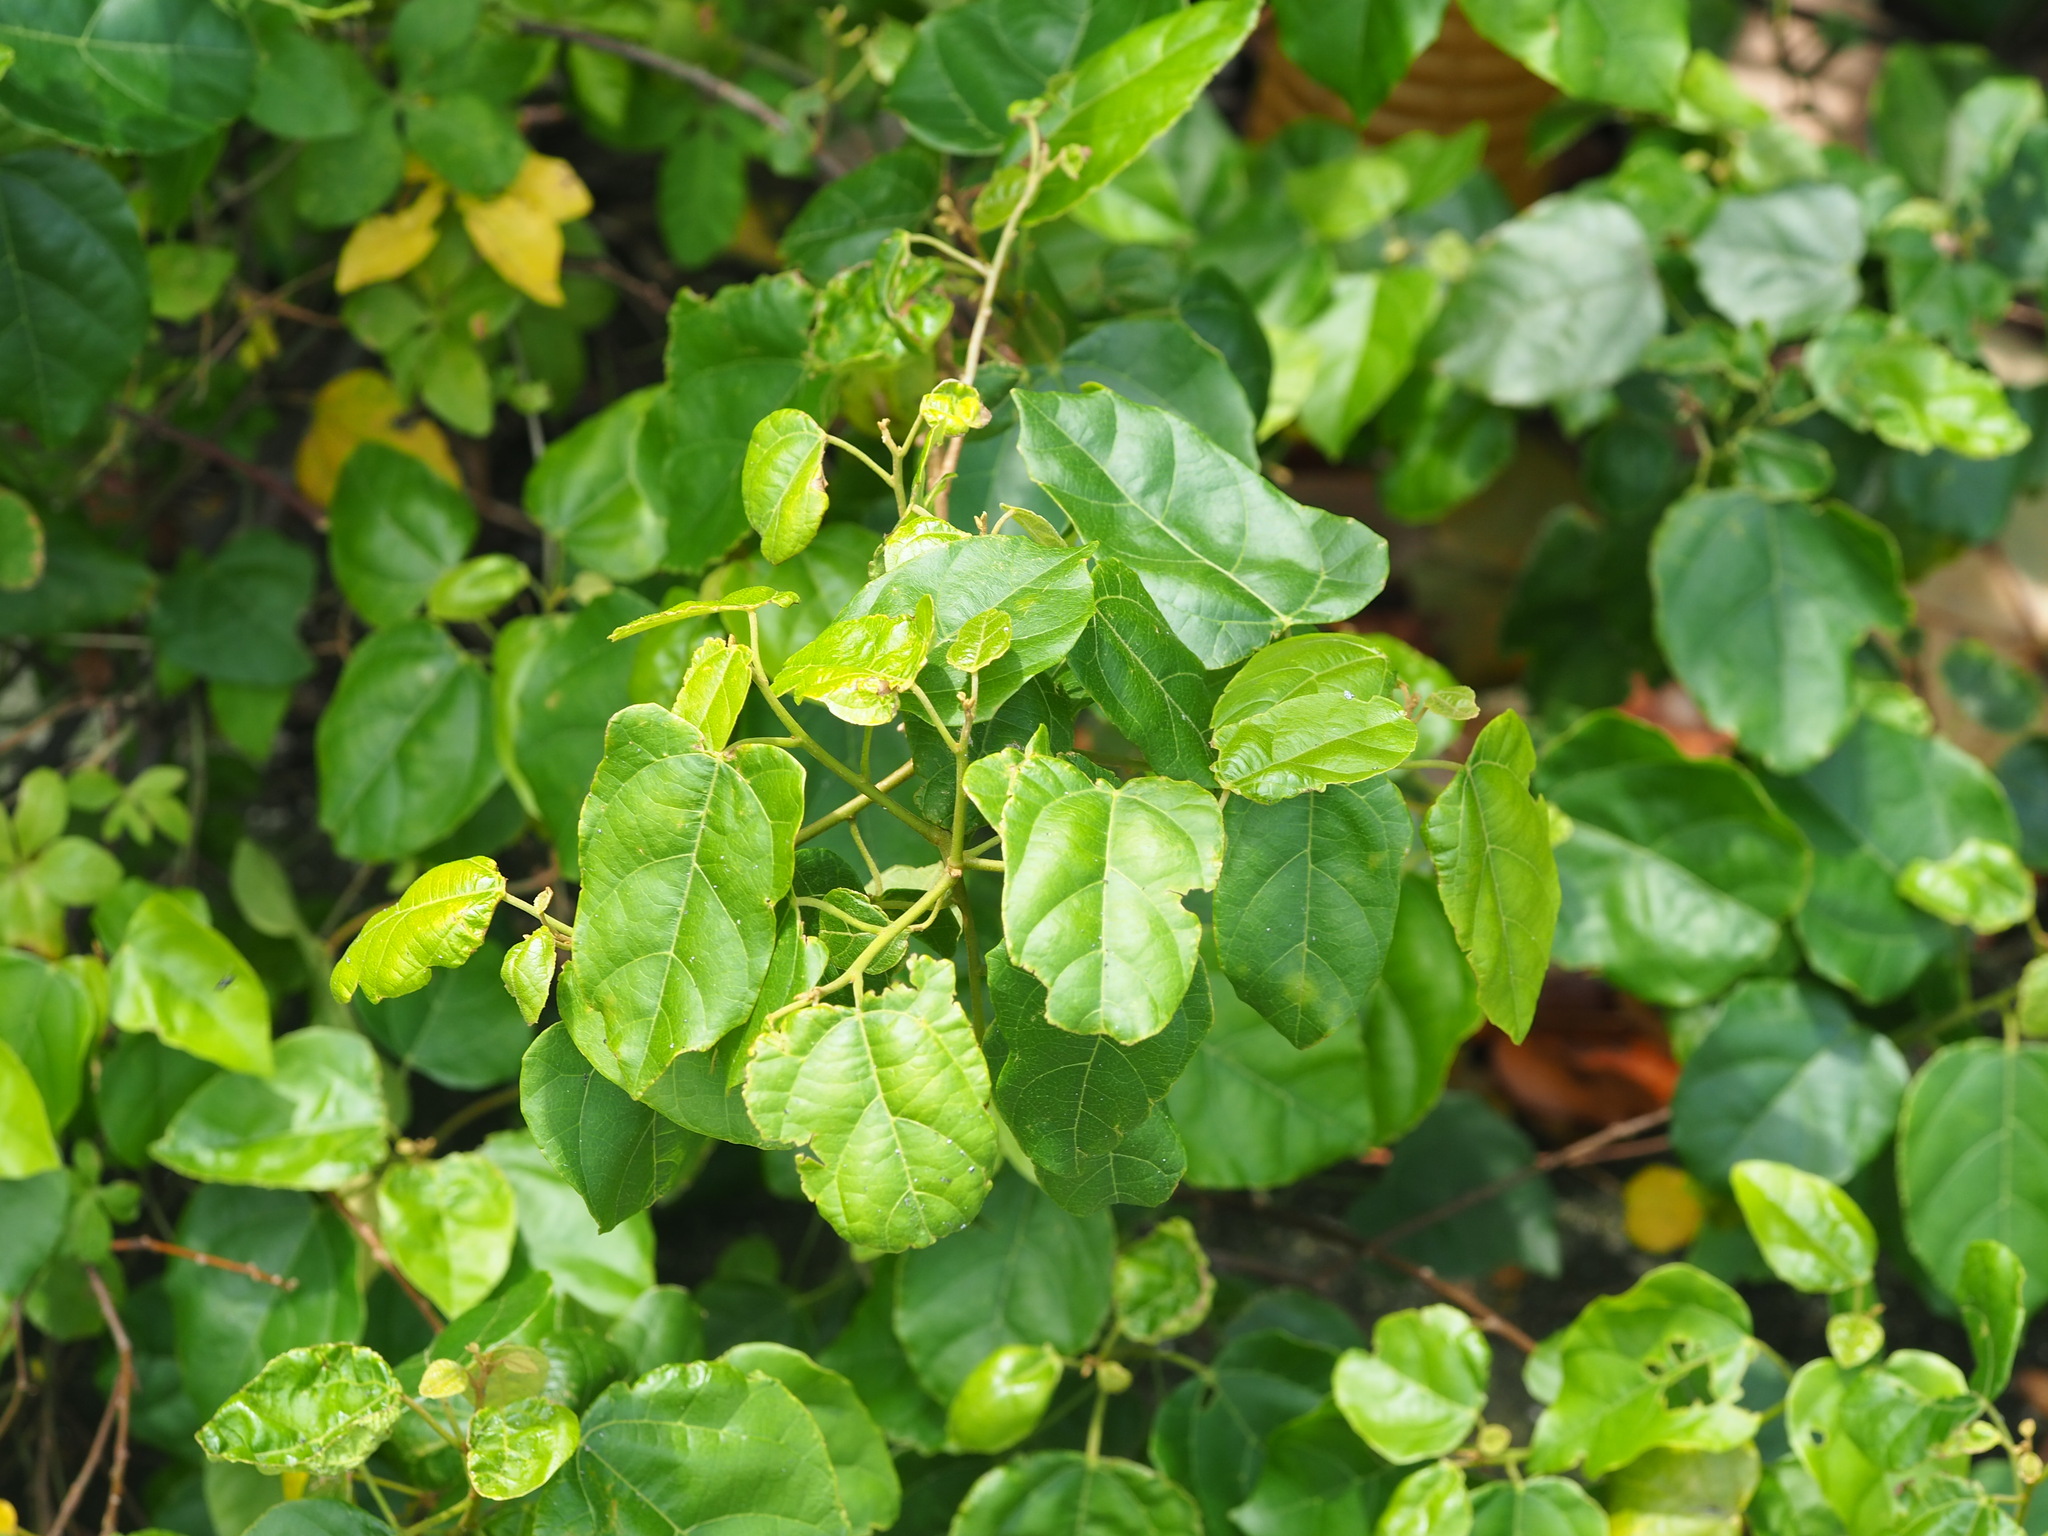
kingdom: Plantae
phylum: Tracheophyta
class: Magnoliopsida
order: Malpighiales
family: Euphorbiaceae
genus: Mallotus
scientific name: Mallotus repandus
